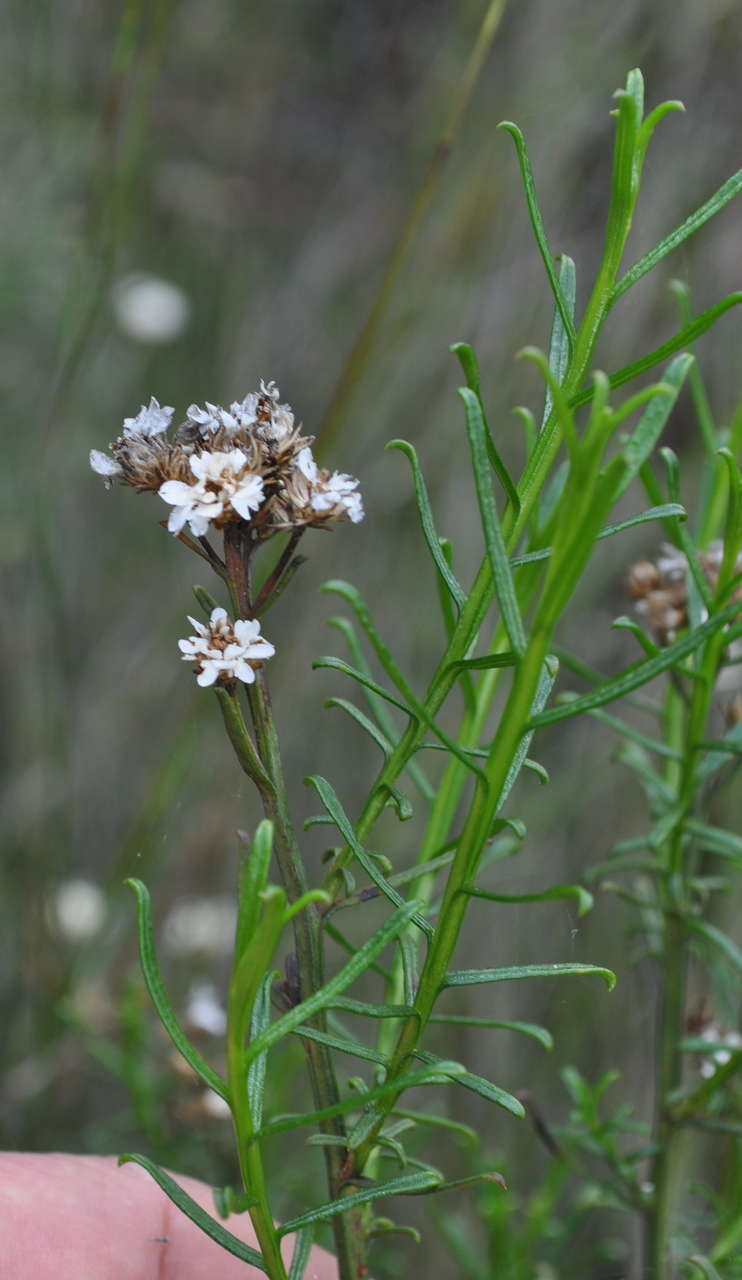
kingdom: Plantae
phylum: Tracheophyta
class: Magnoliopsida
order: Asterales
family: Asteraceae
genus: Ixodia
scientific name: Ixodia achillaeoides
